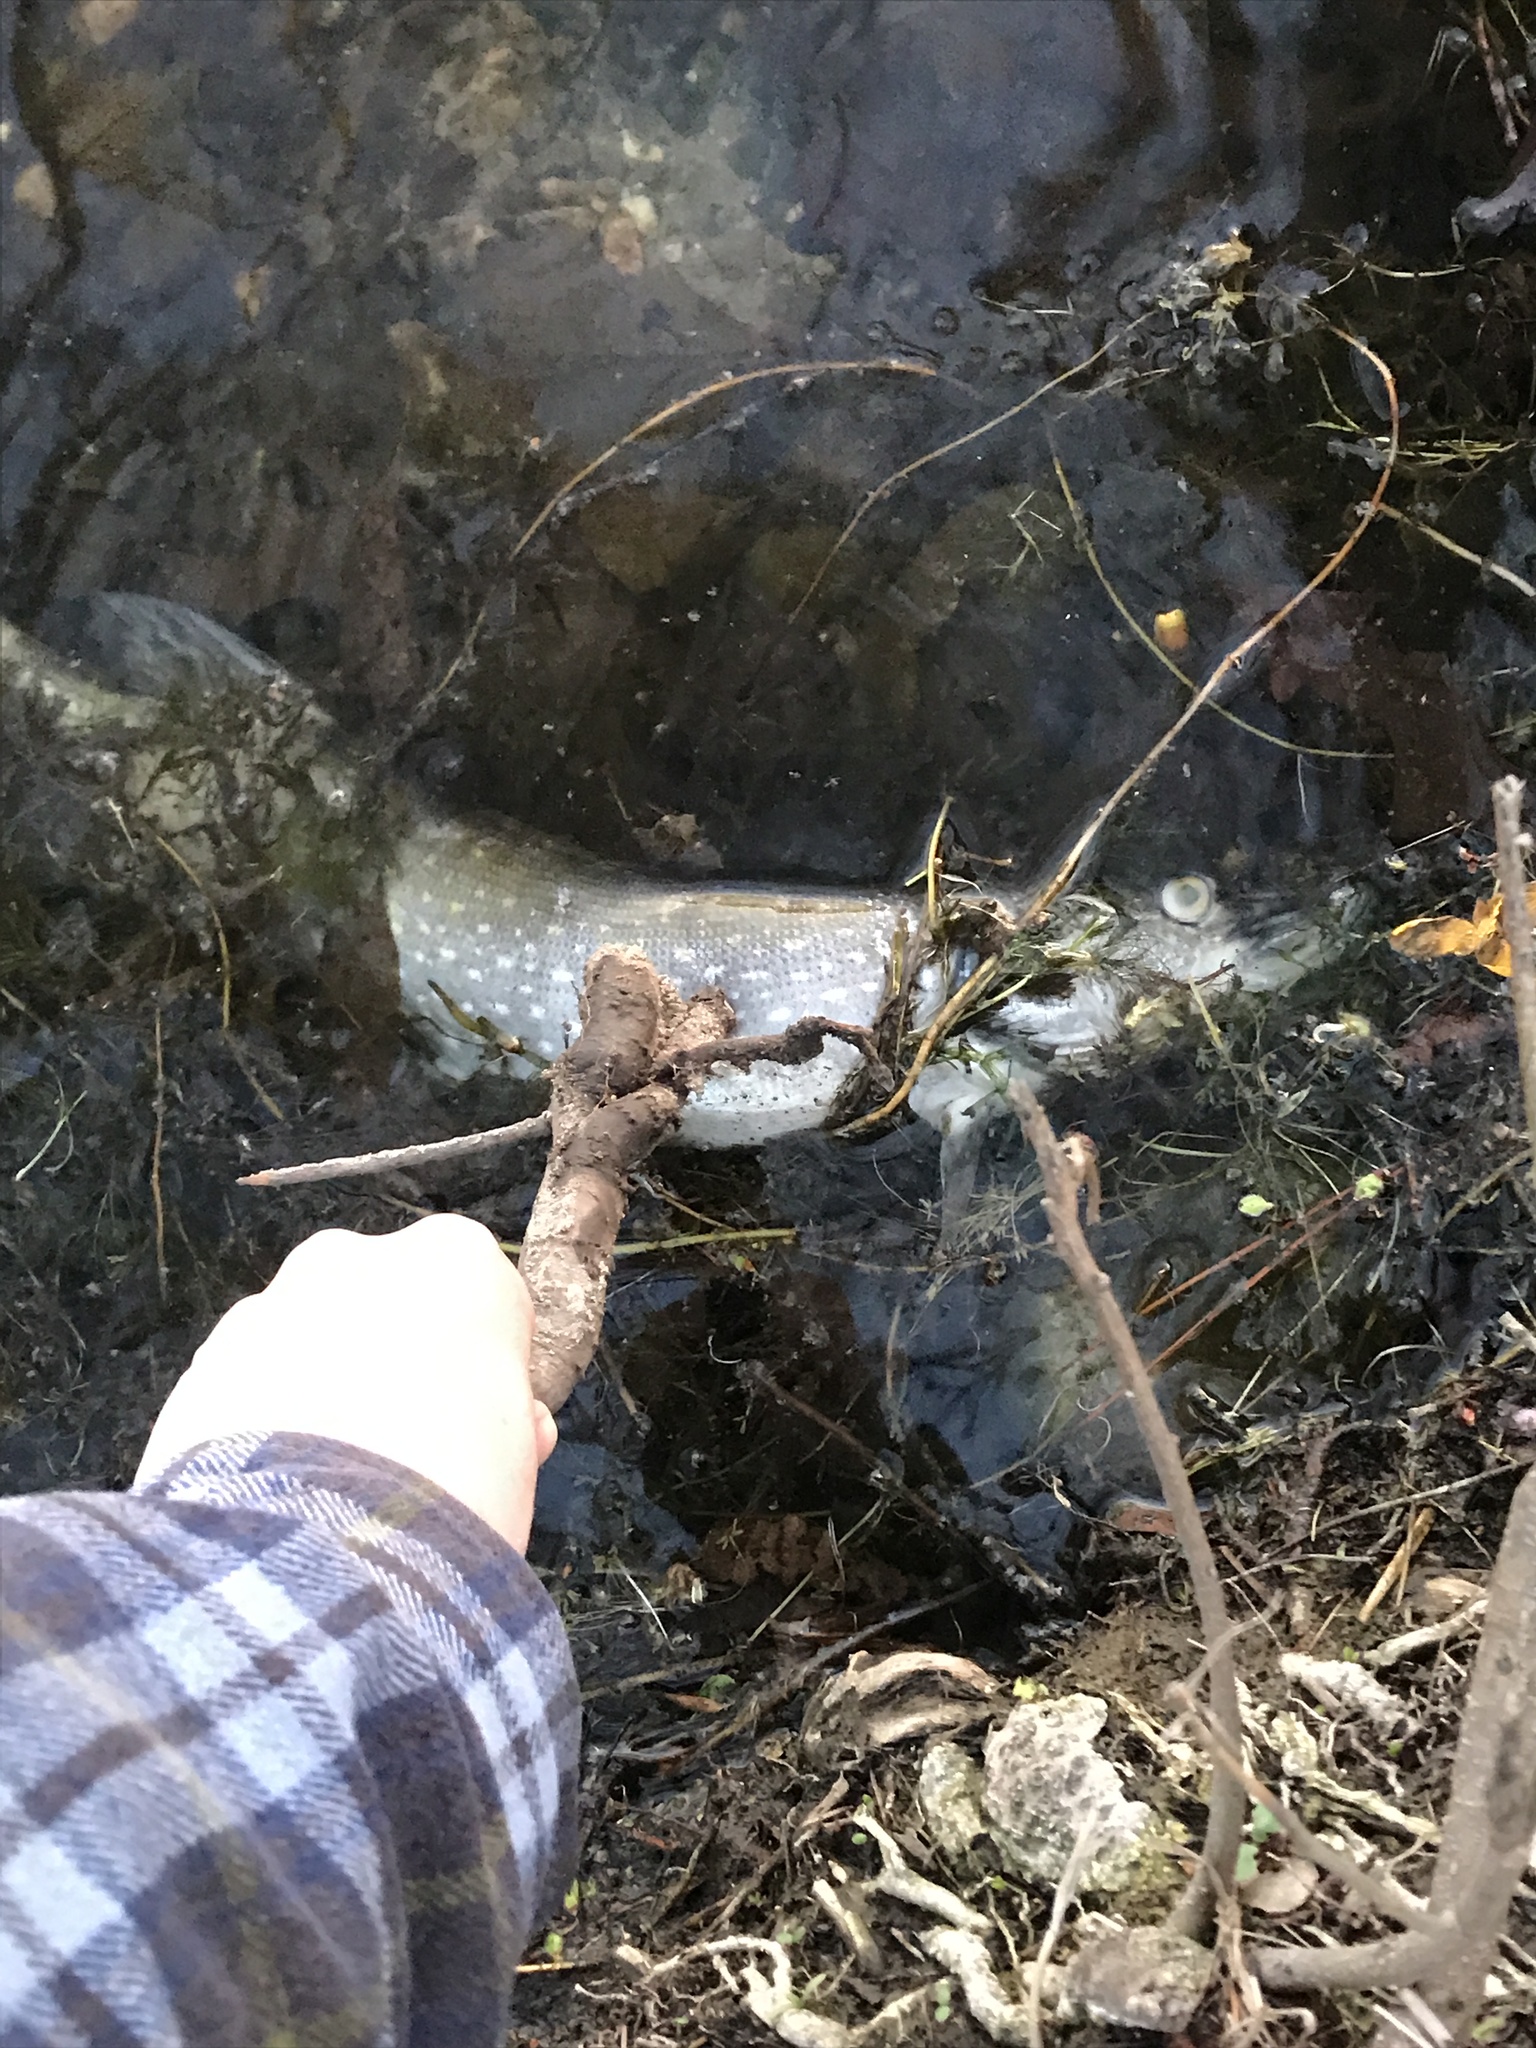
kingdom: Animalia
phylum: Chordata
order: Esociformes
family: Esocidae
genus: Esox
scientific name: Esox lucius
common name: Northern pike
